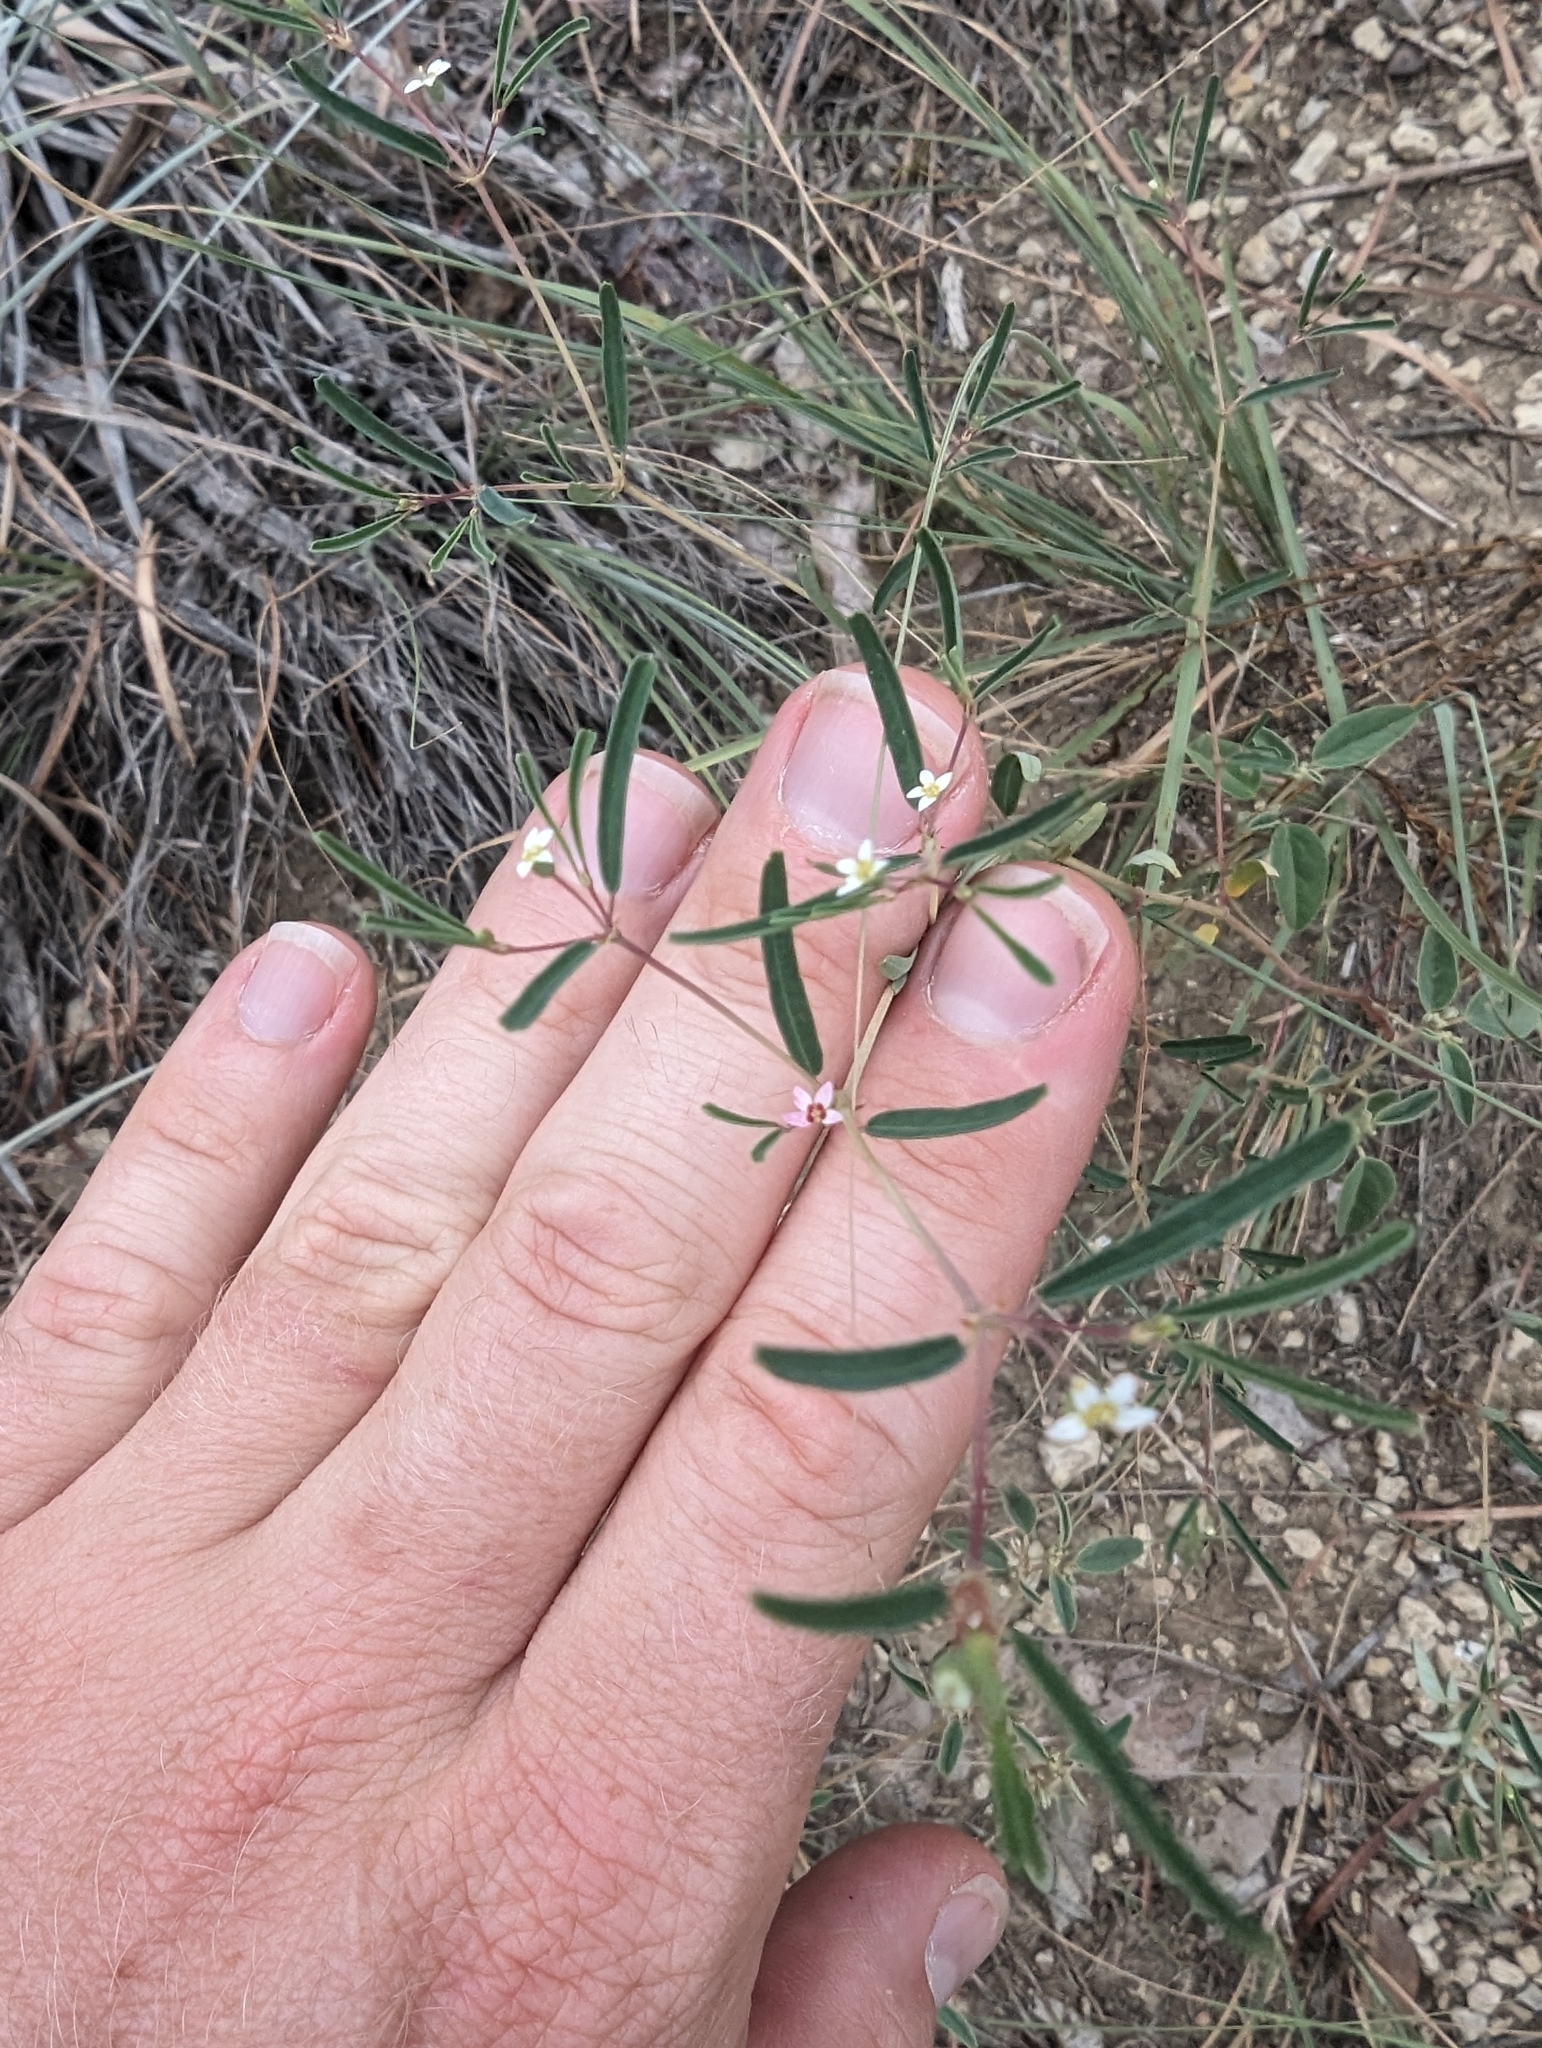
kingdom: Plantae
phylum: Tracheophyta
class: Magnoliopsida
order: Malpighiales
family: Euphorbiaceae
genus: Euphorbia
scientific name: Euphorbia missurica
